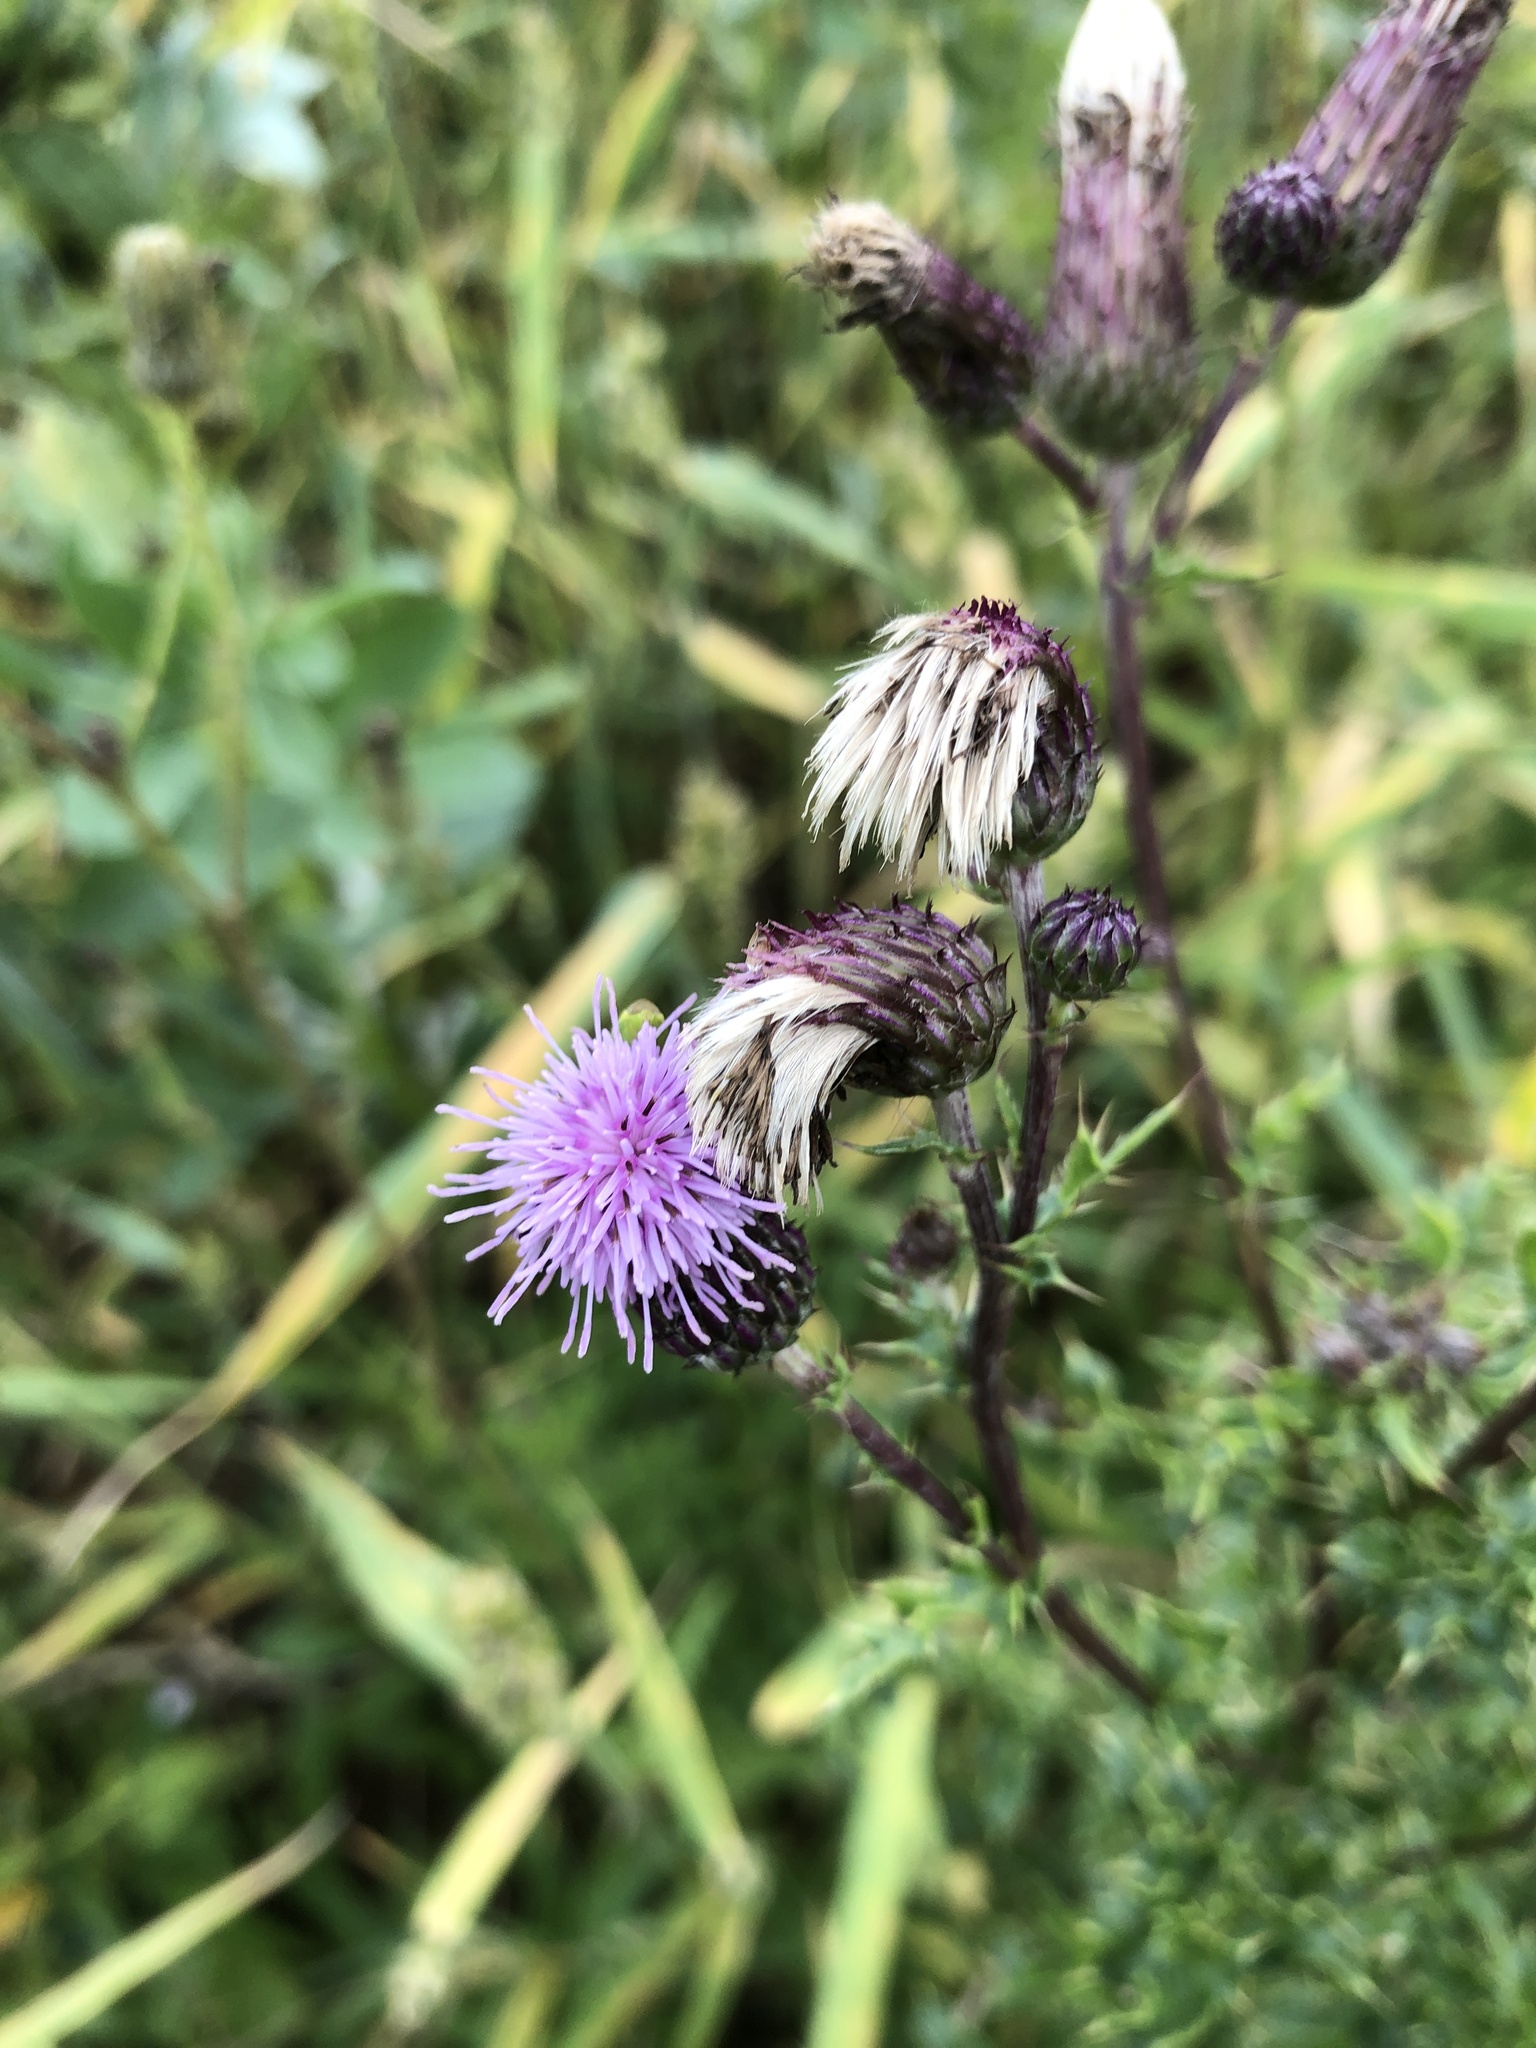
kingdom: Plantae
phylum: Tracheophyta
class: Magnoliopsida
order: Asterales
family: Asteraceae
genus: Cirsium
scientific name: Cirsium arvense
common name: Creeping thistle
